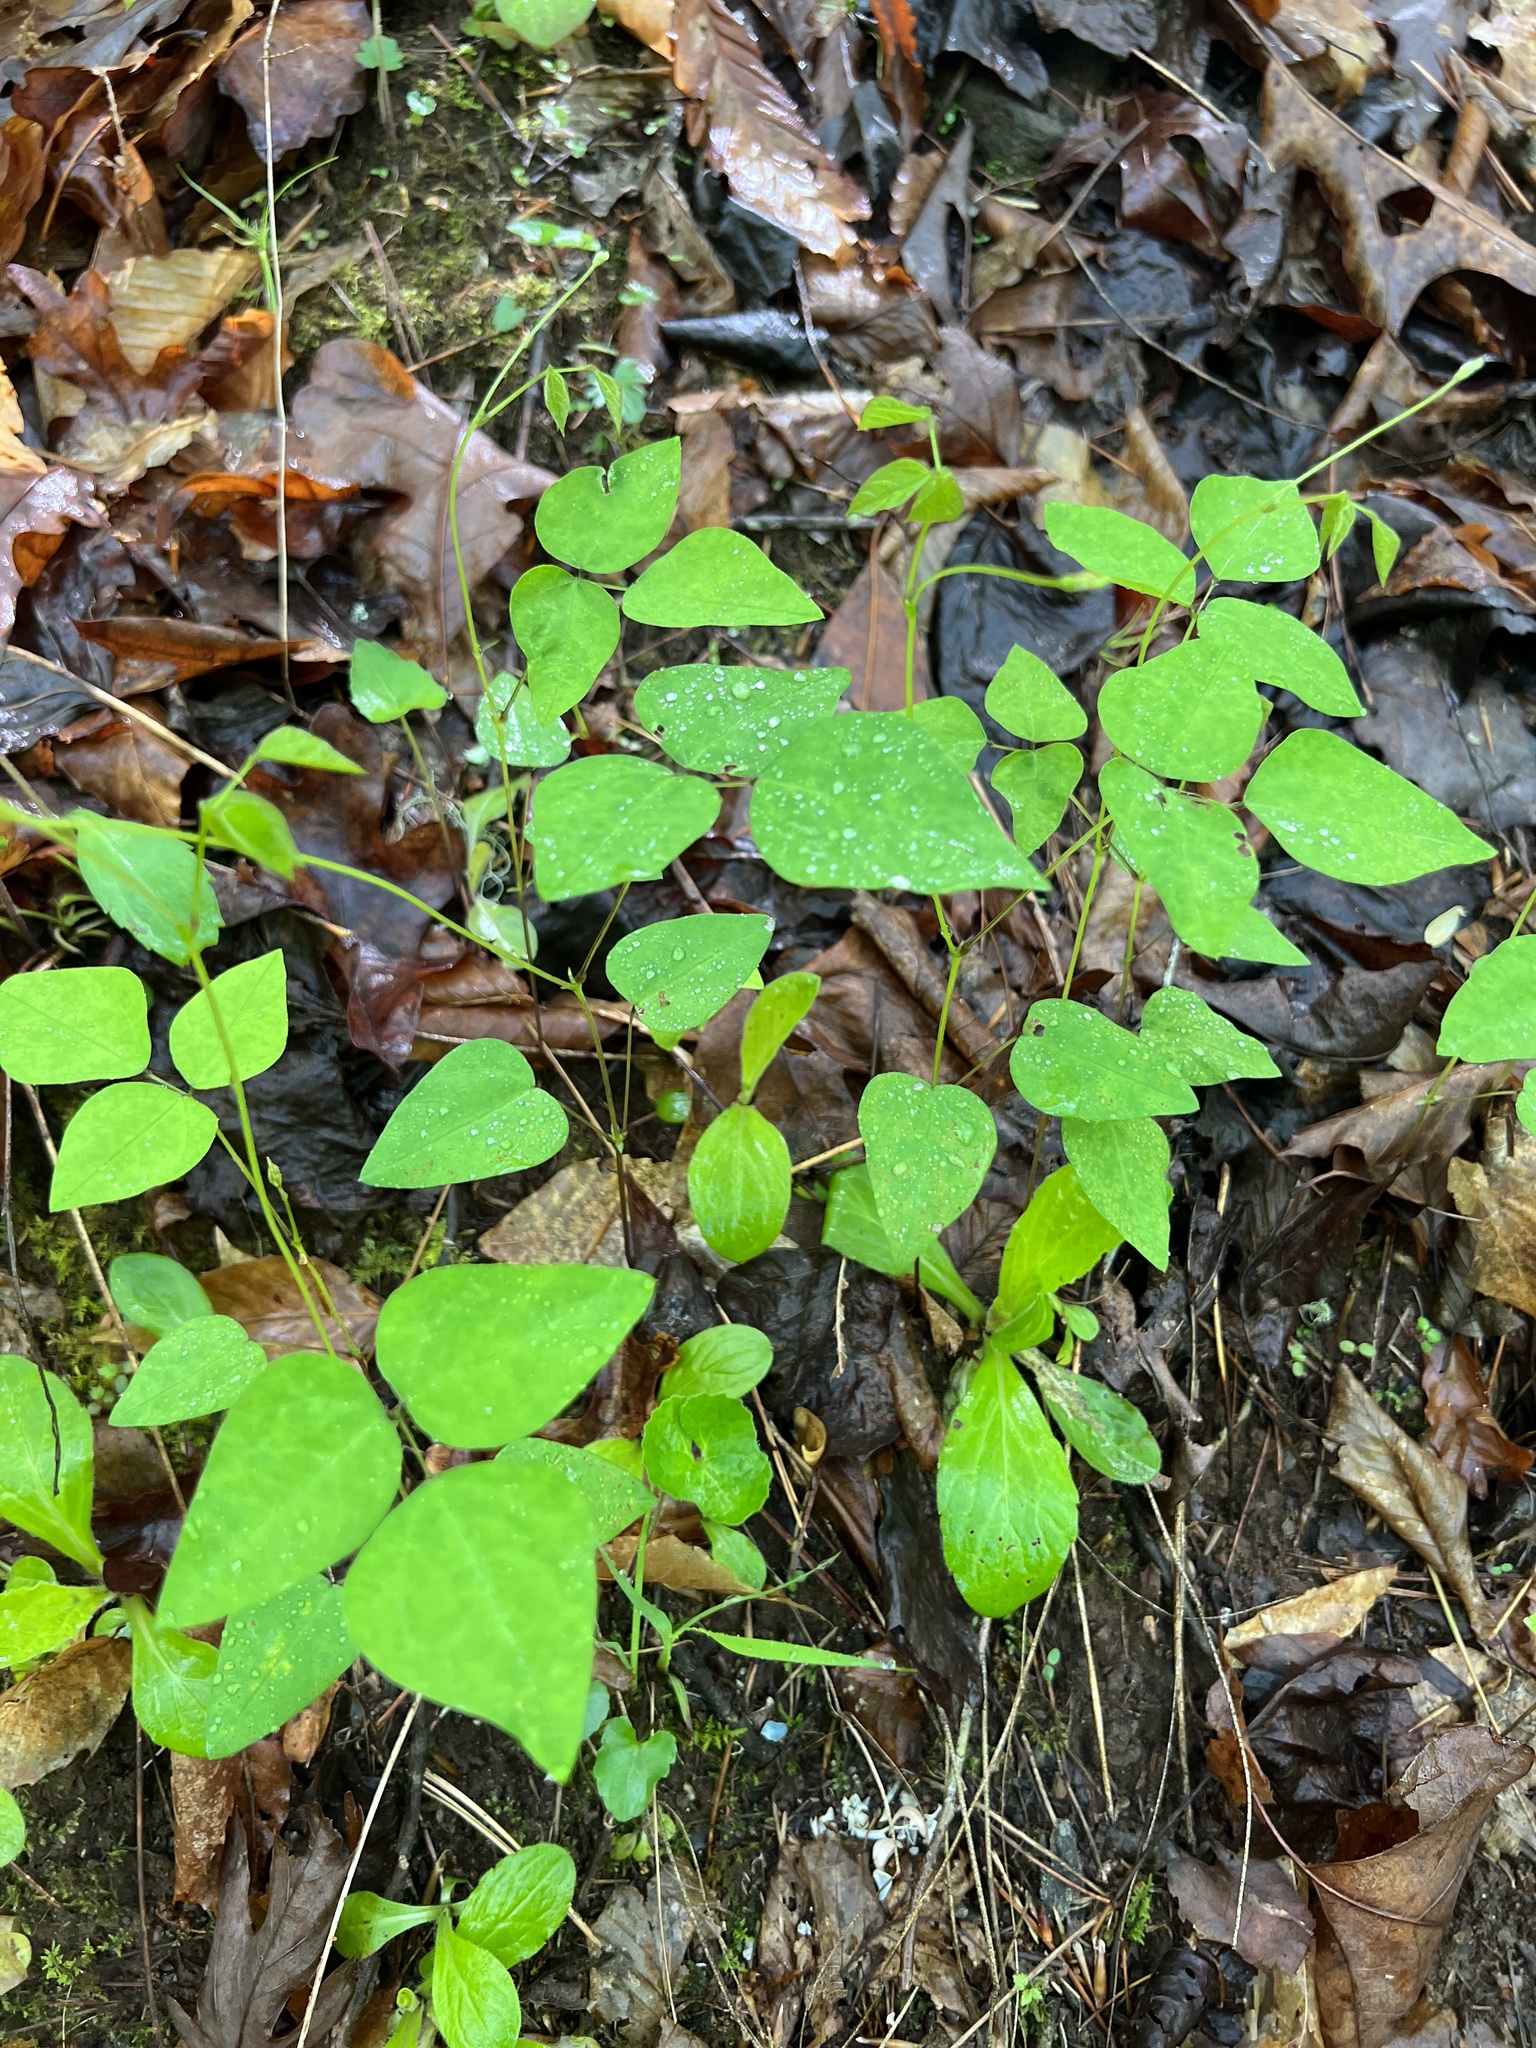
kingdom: Plantae
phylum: Tracheophyta
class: Magnoliopsida
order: Fabales
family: Fabaceae
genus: Amphicarpaea
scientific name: Amphicarpaea bracteata
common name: American hog peanut
